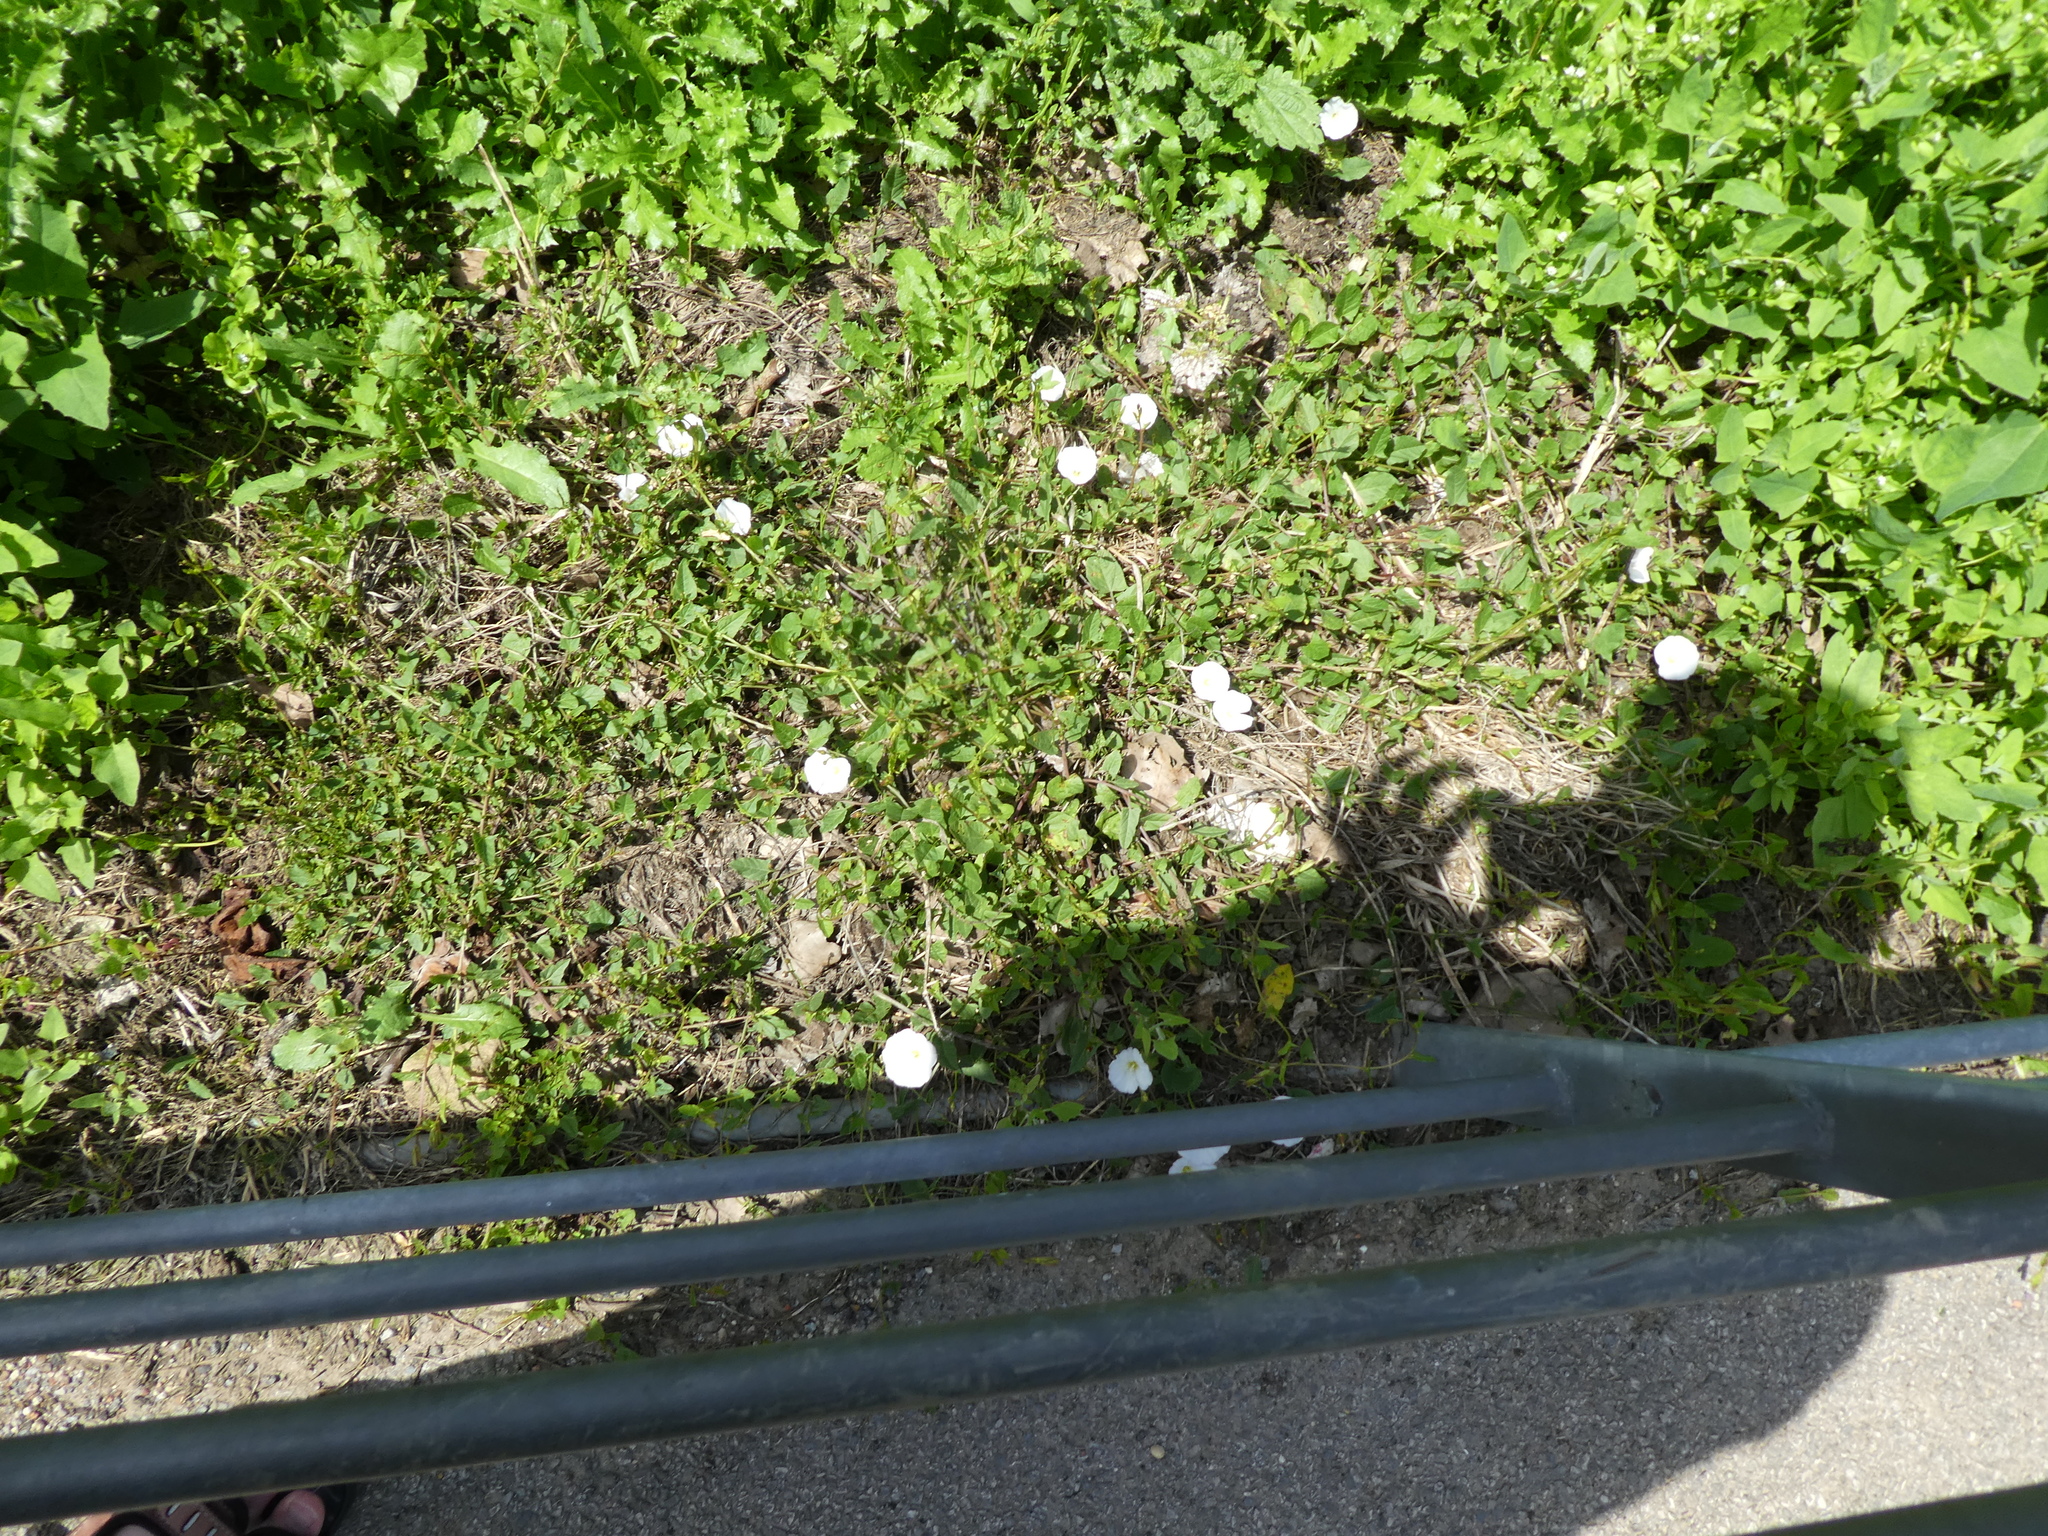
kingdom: Plantae
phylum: Tracheophyta
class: Magnoliopsida
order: Solanales
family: Convolvulaceae
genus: Convolvulus
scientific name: Convolvulus arvensis
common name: Field bindweed
